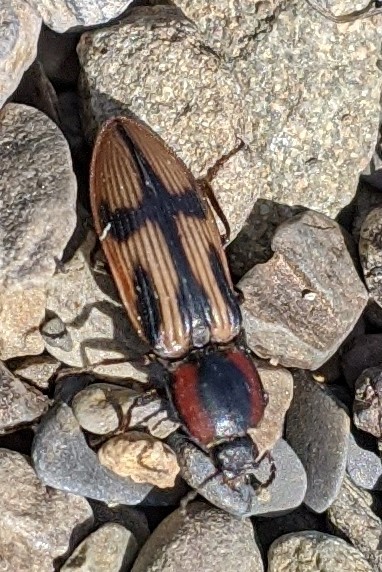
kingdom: Animalia
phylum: Arthropoda
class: Insecta
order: Coleoptera
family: Elateridae
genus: Selatosomus
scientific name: Selatosomus pulcher
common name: Noble click beetle
